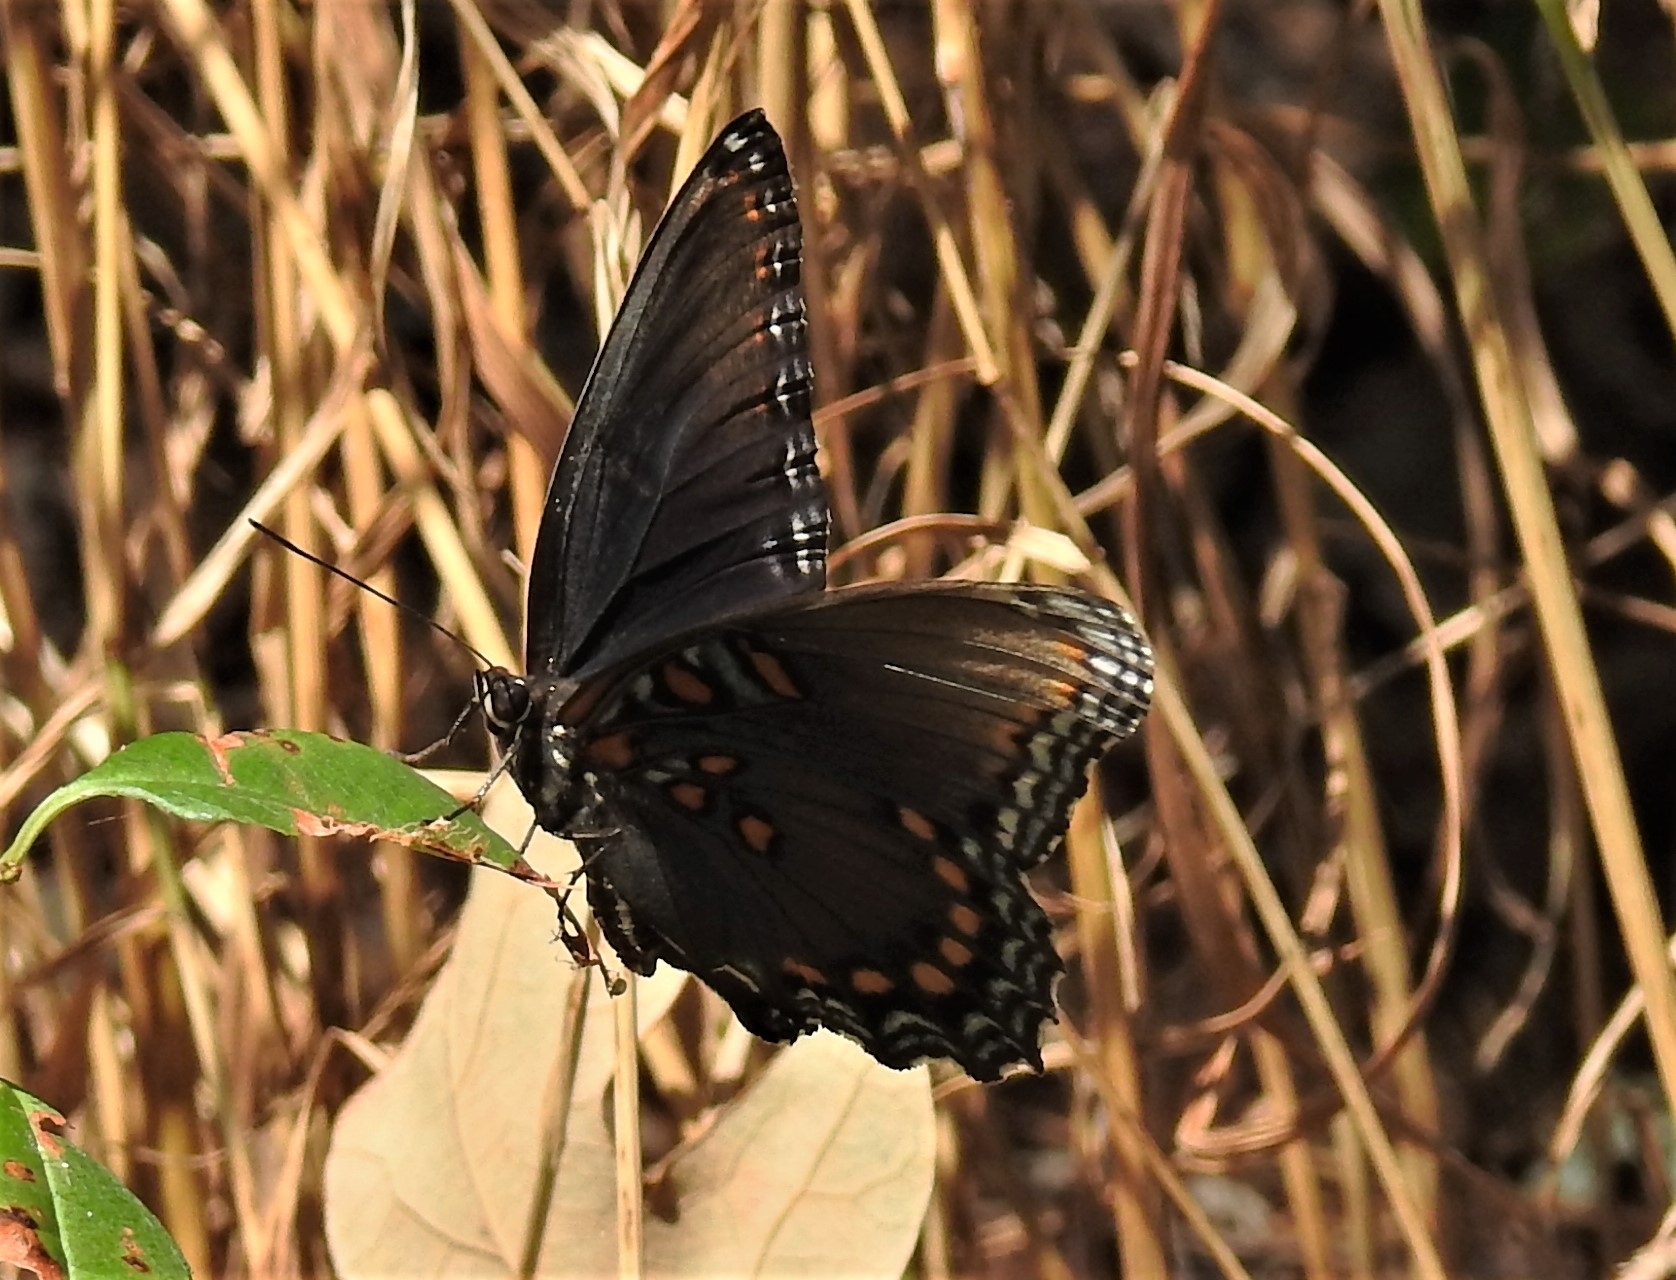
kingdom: Animalia
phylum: Arthropoda
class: Insecta
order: Lepidoptera
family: Nymphalidae
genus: Limenitis
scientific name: Limenitis arthemis
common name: Red-spotted admiral
